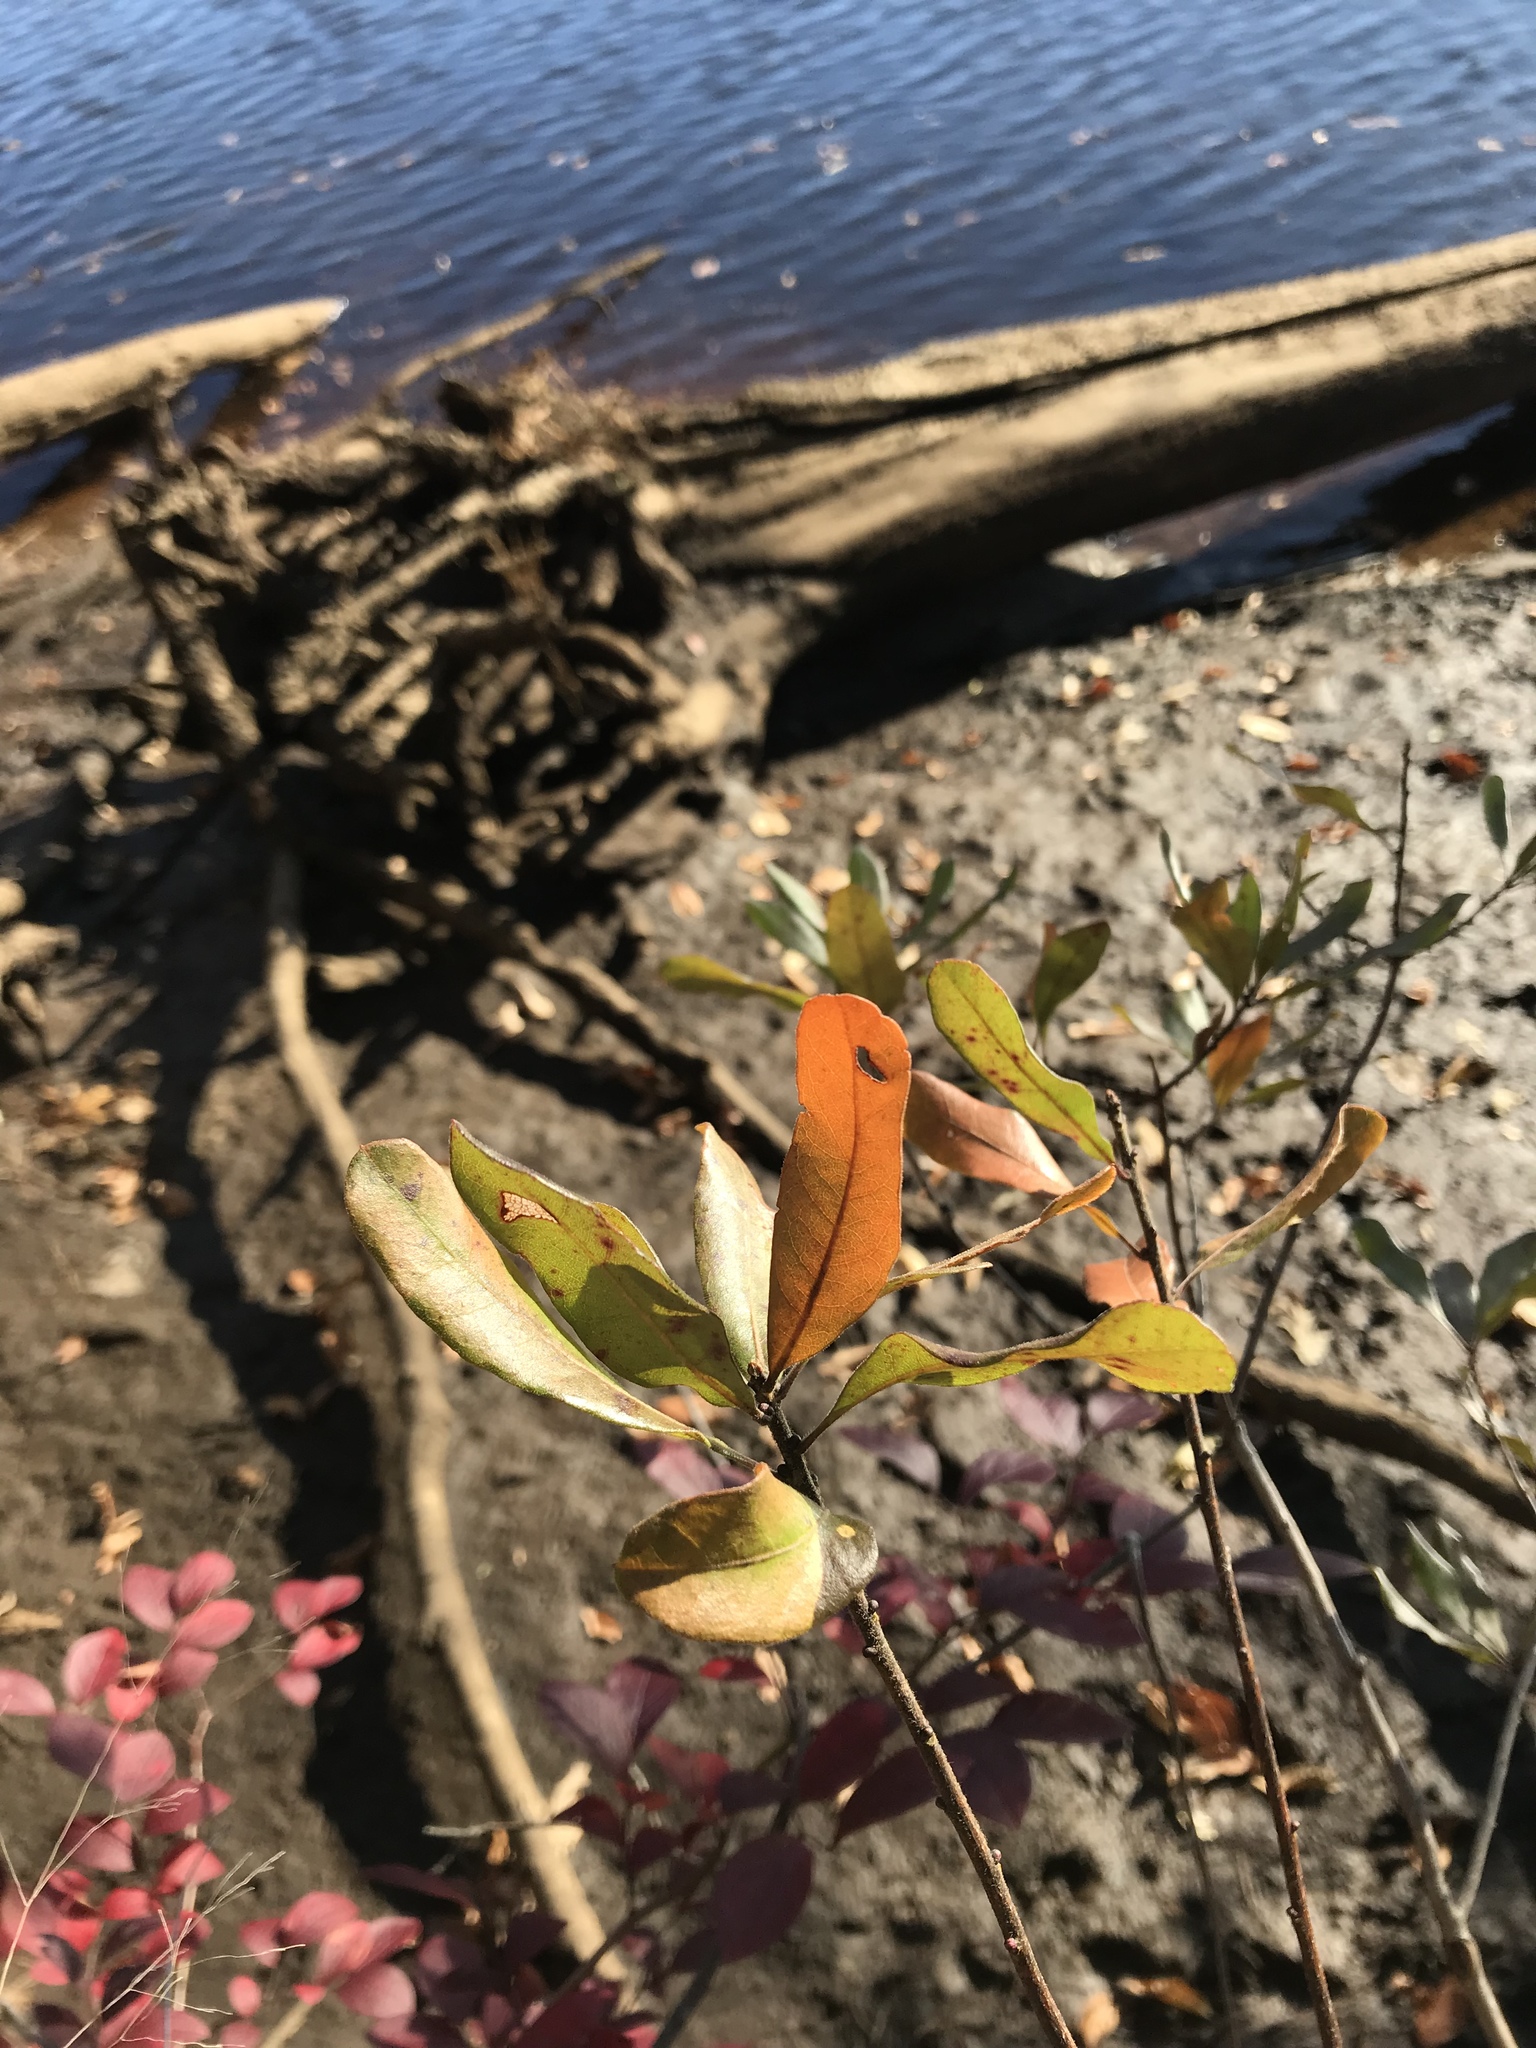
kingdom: Plantae
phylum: Tracheophyta
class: Magnoliopsida
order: Fagales
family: Myricaceae
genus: Morella
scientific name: Morella pensylvanica
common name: Northern bayberry
